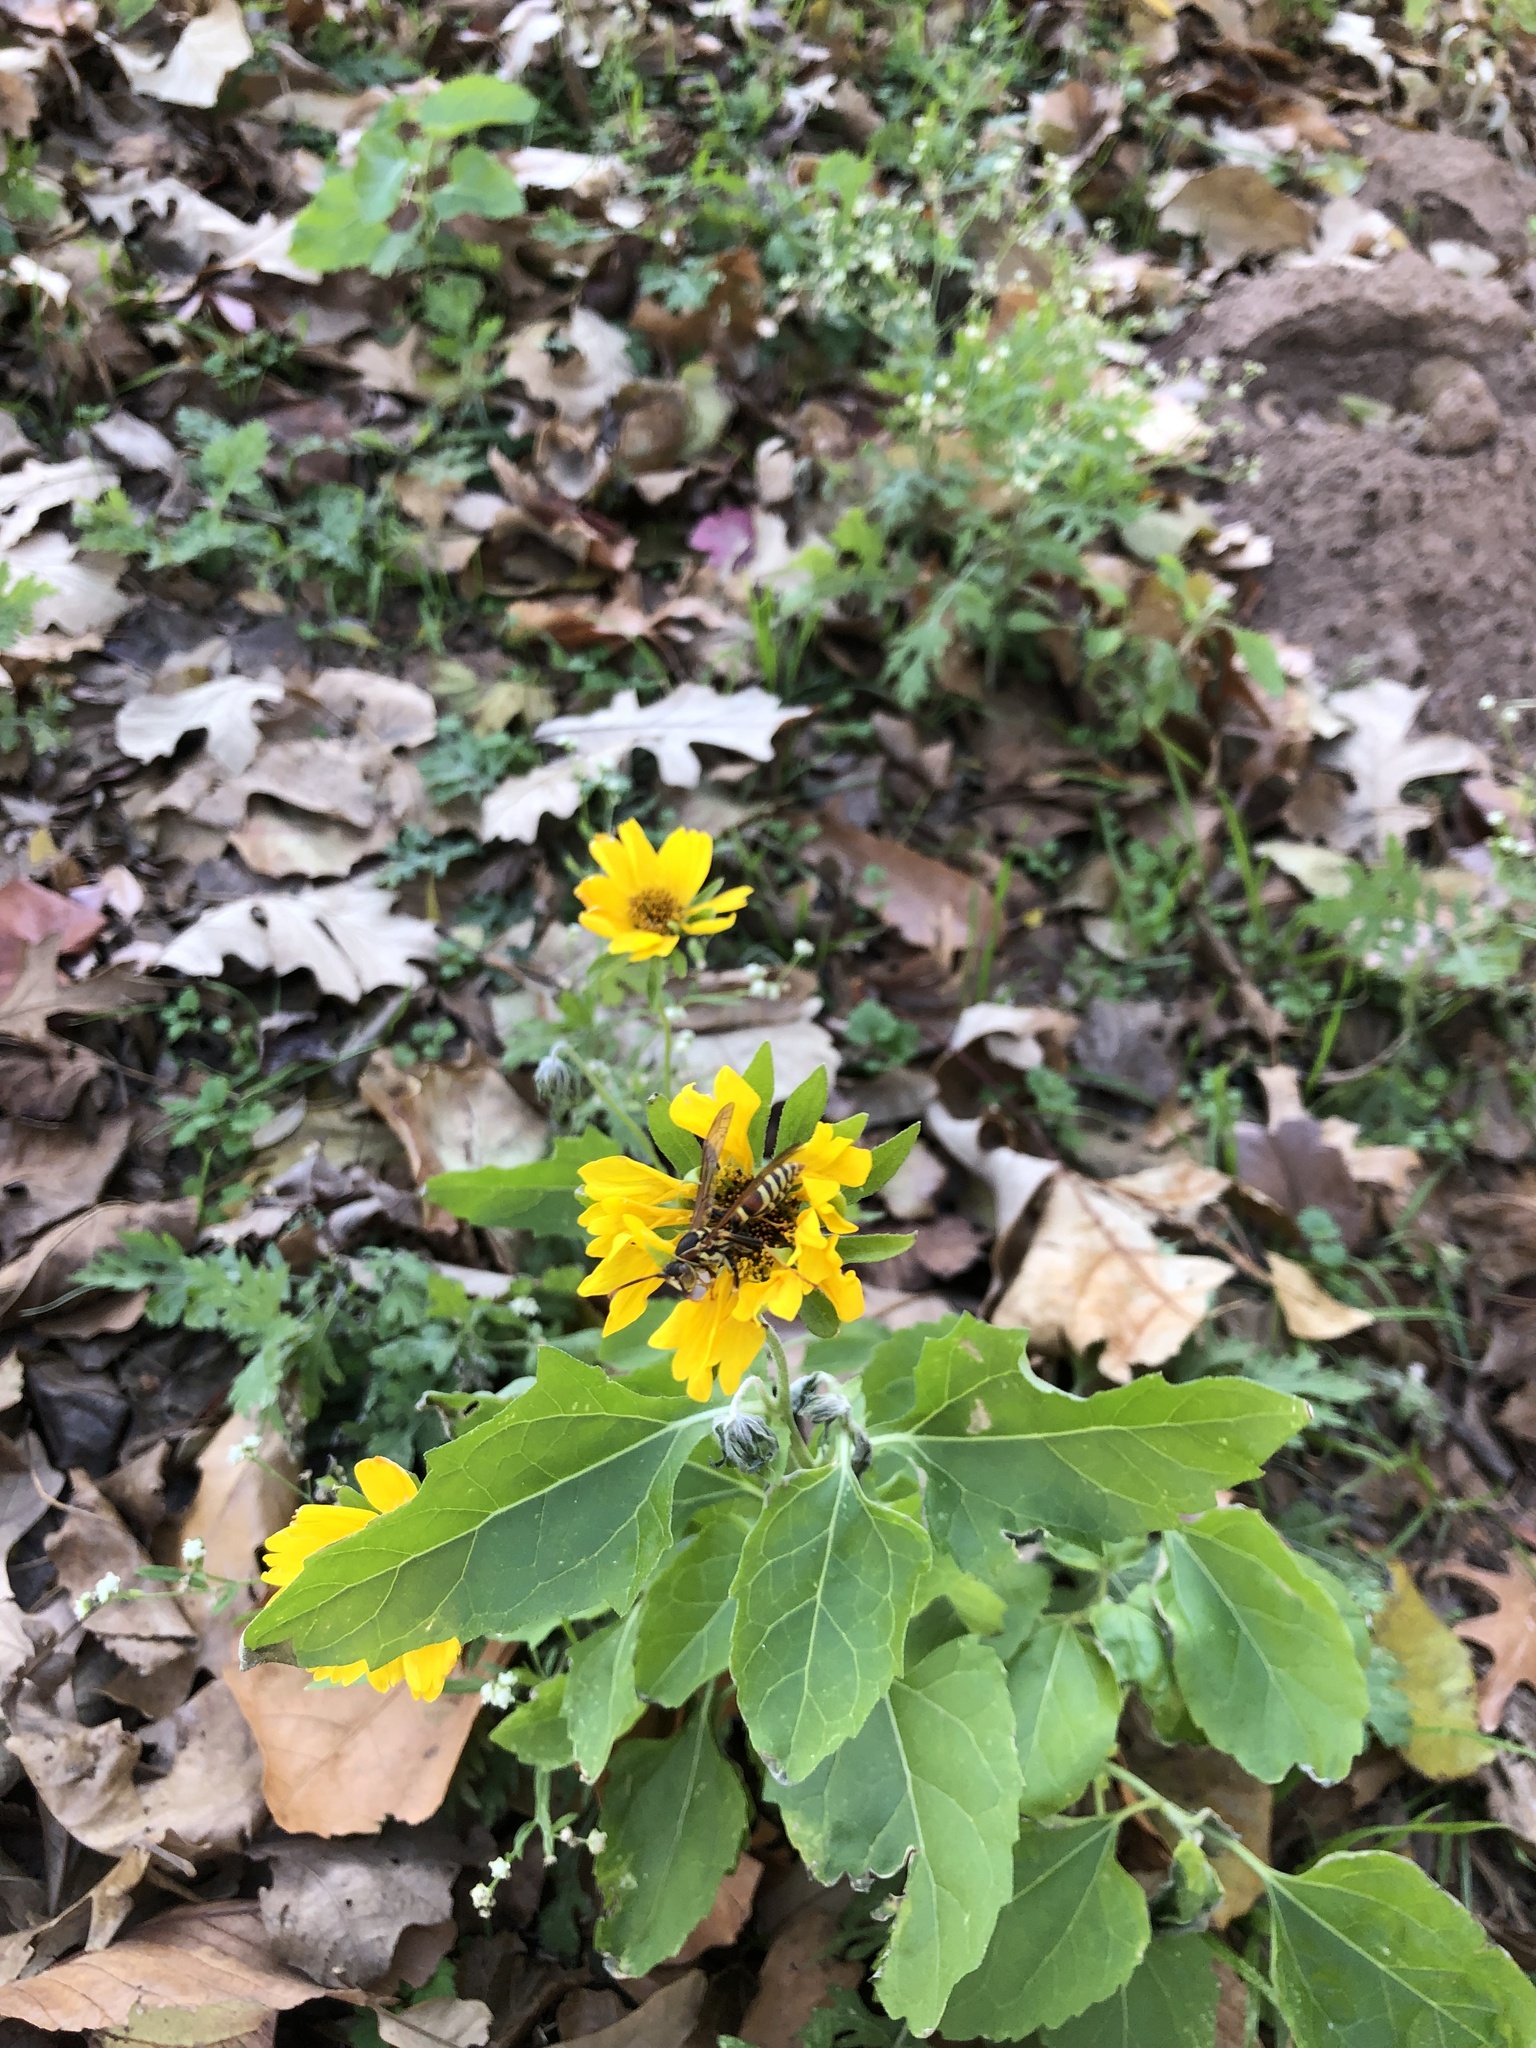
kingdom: Plantae
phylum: Tracheophyta
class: Magnoliopsida
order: Asterales
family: Asteraceae
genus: Verbesina
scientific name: Verbesina encelioides
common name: Golden crownbeard
